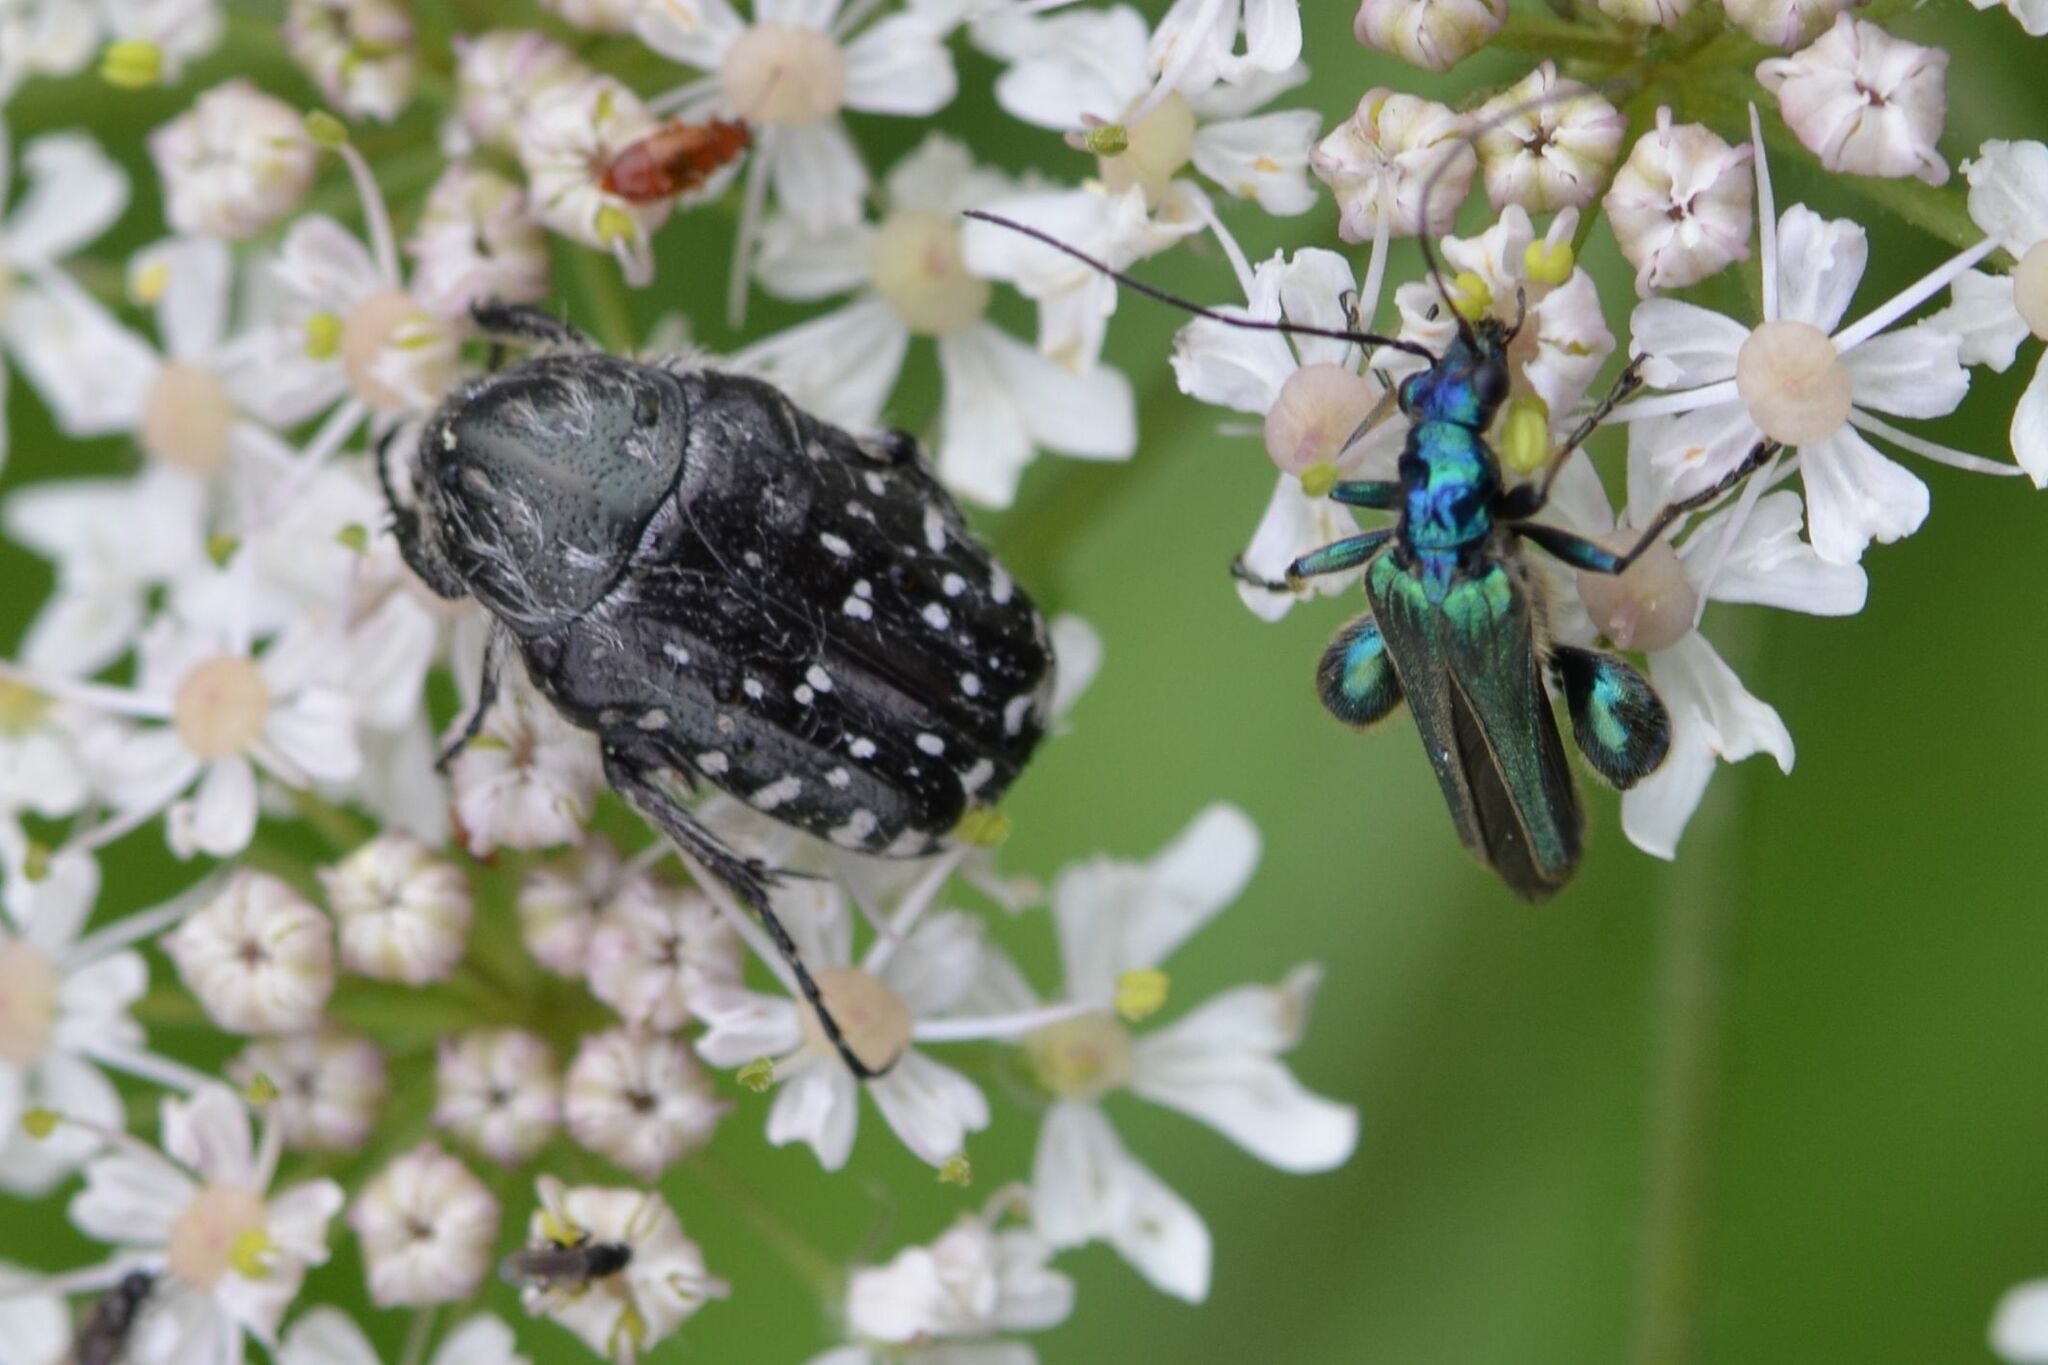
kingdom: Animalia
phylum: Arthropoda
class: Insecta
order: Coleoptera
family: Scarabaeidae
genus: Oxythyrea
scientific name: Oxythyrea funesta
